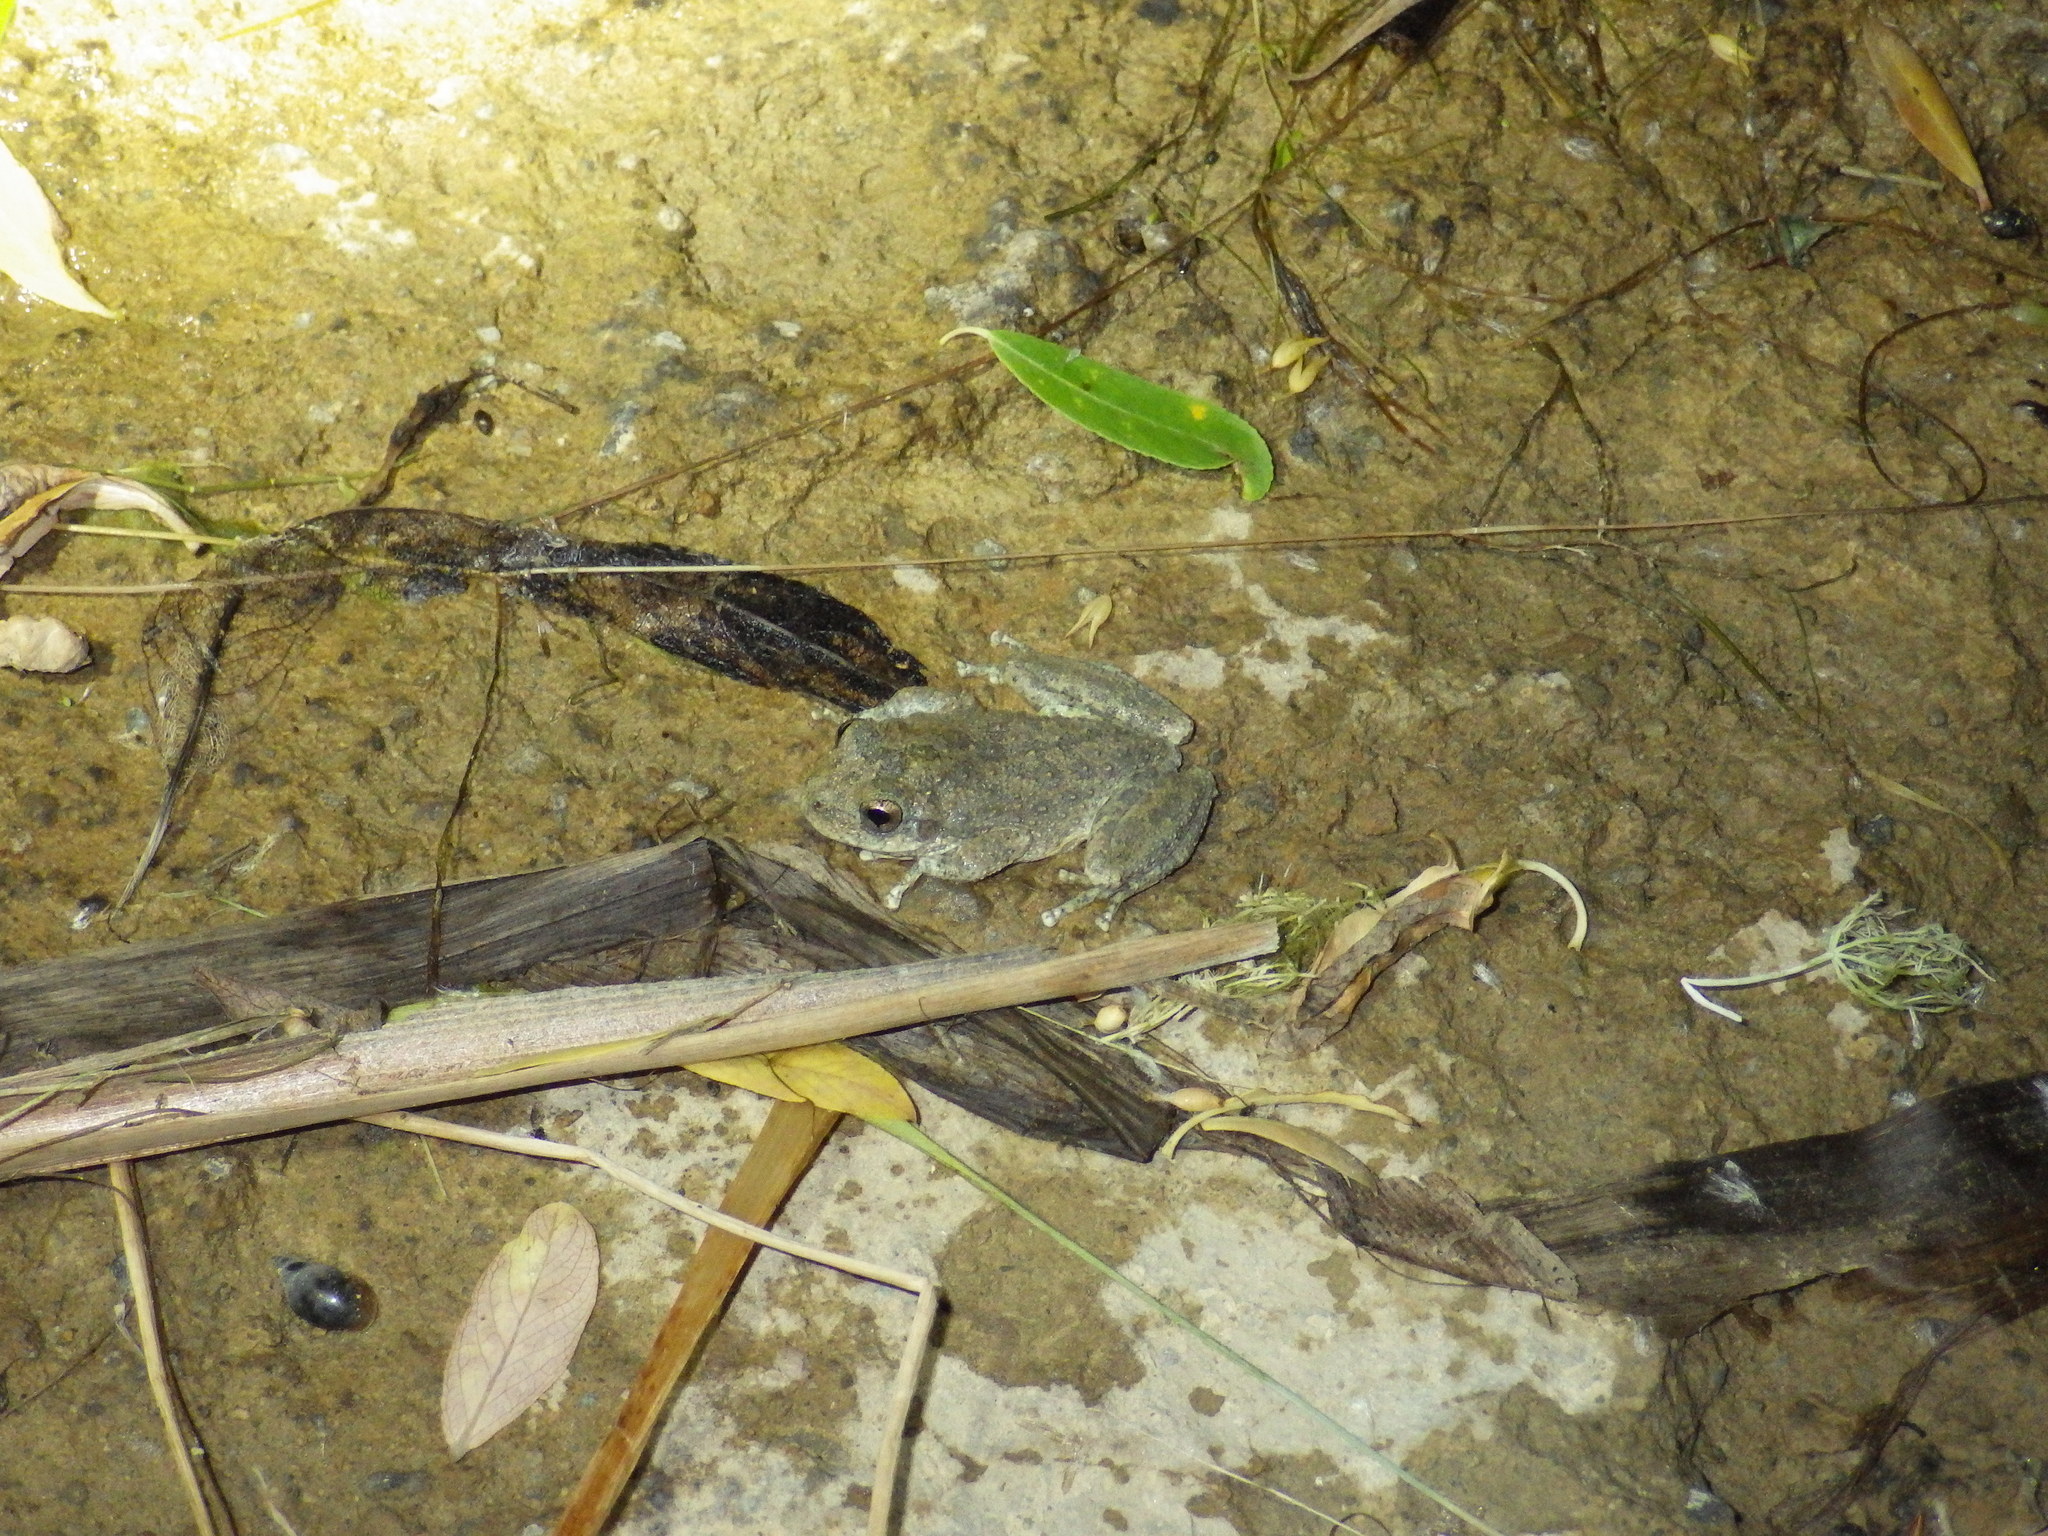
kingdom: Animalia
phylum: Chordata
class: Amphibia
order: Anura
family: Hylidae
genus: Pseudacris
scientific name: Pseudacris cadaverina
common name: California chorus frog
